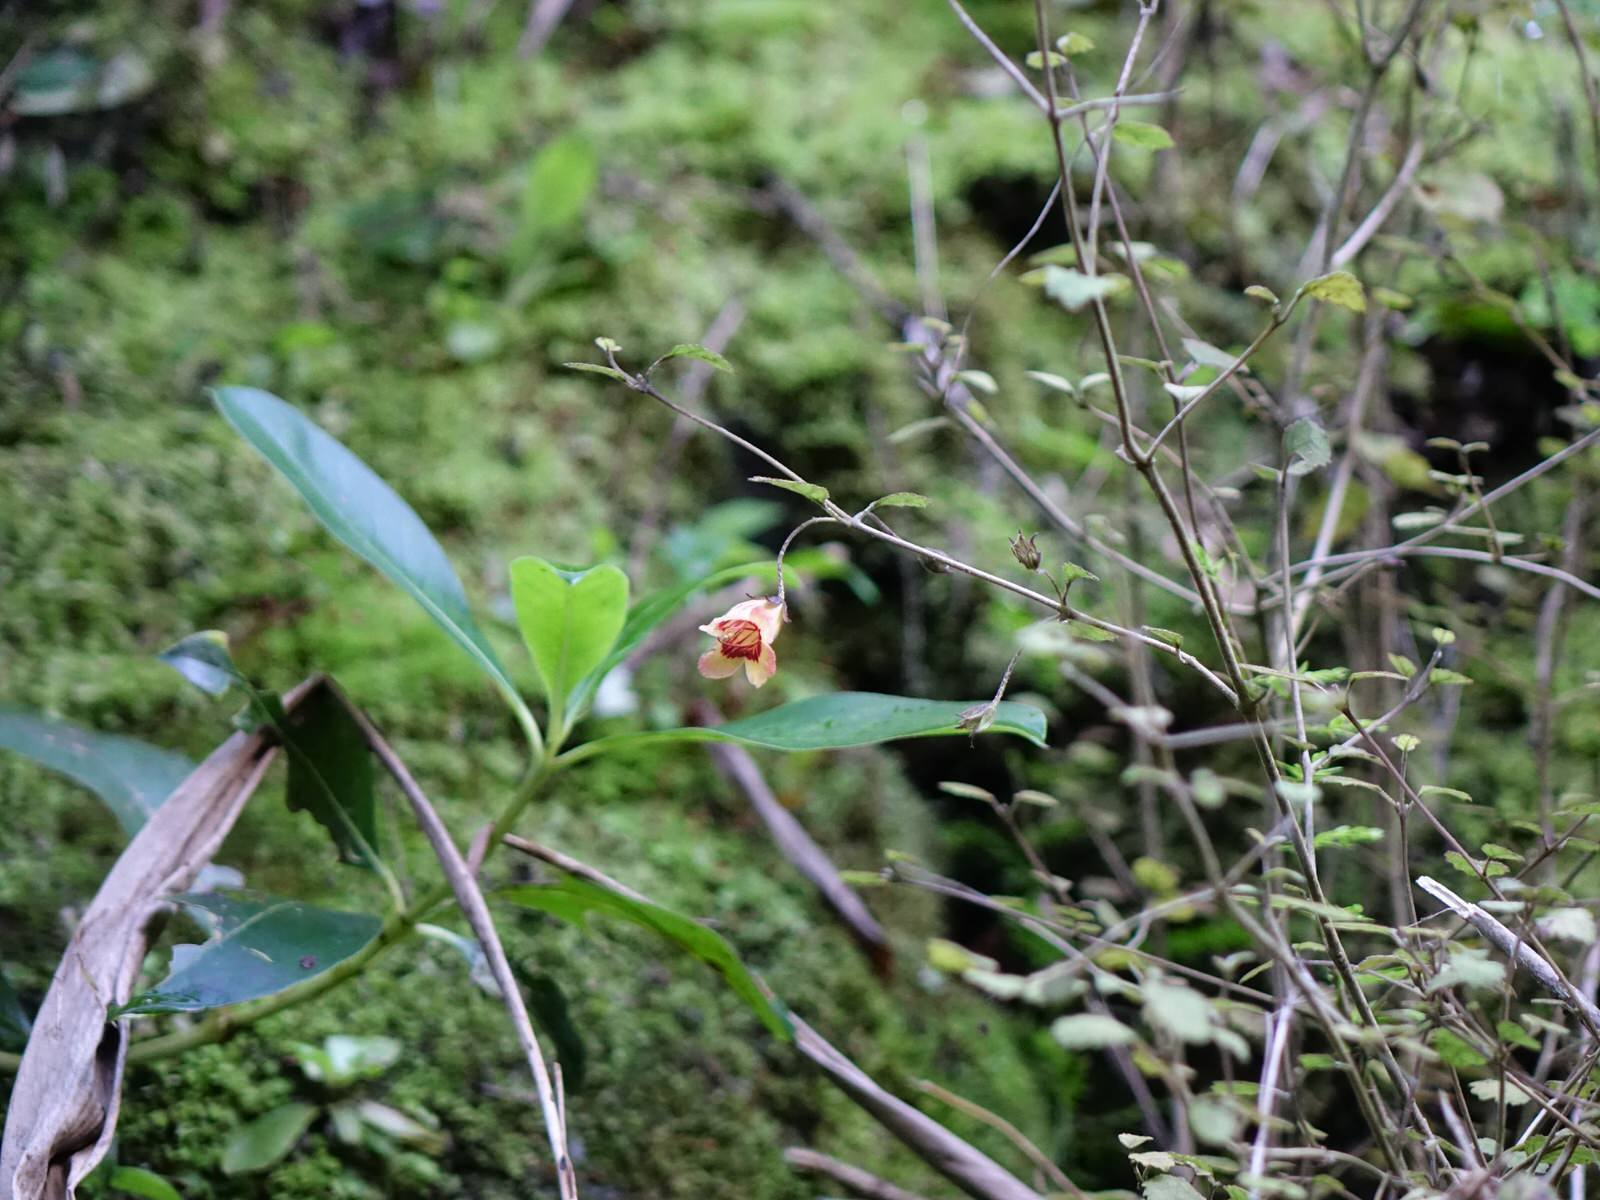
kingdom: Plantae
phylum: Tracheophyta
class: Magnoliopsida
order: Lamiales
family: Gesneriaceae
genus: Rhabdothamnus
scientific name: Rhabdothamnus solandri
